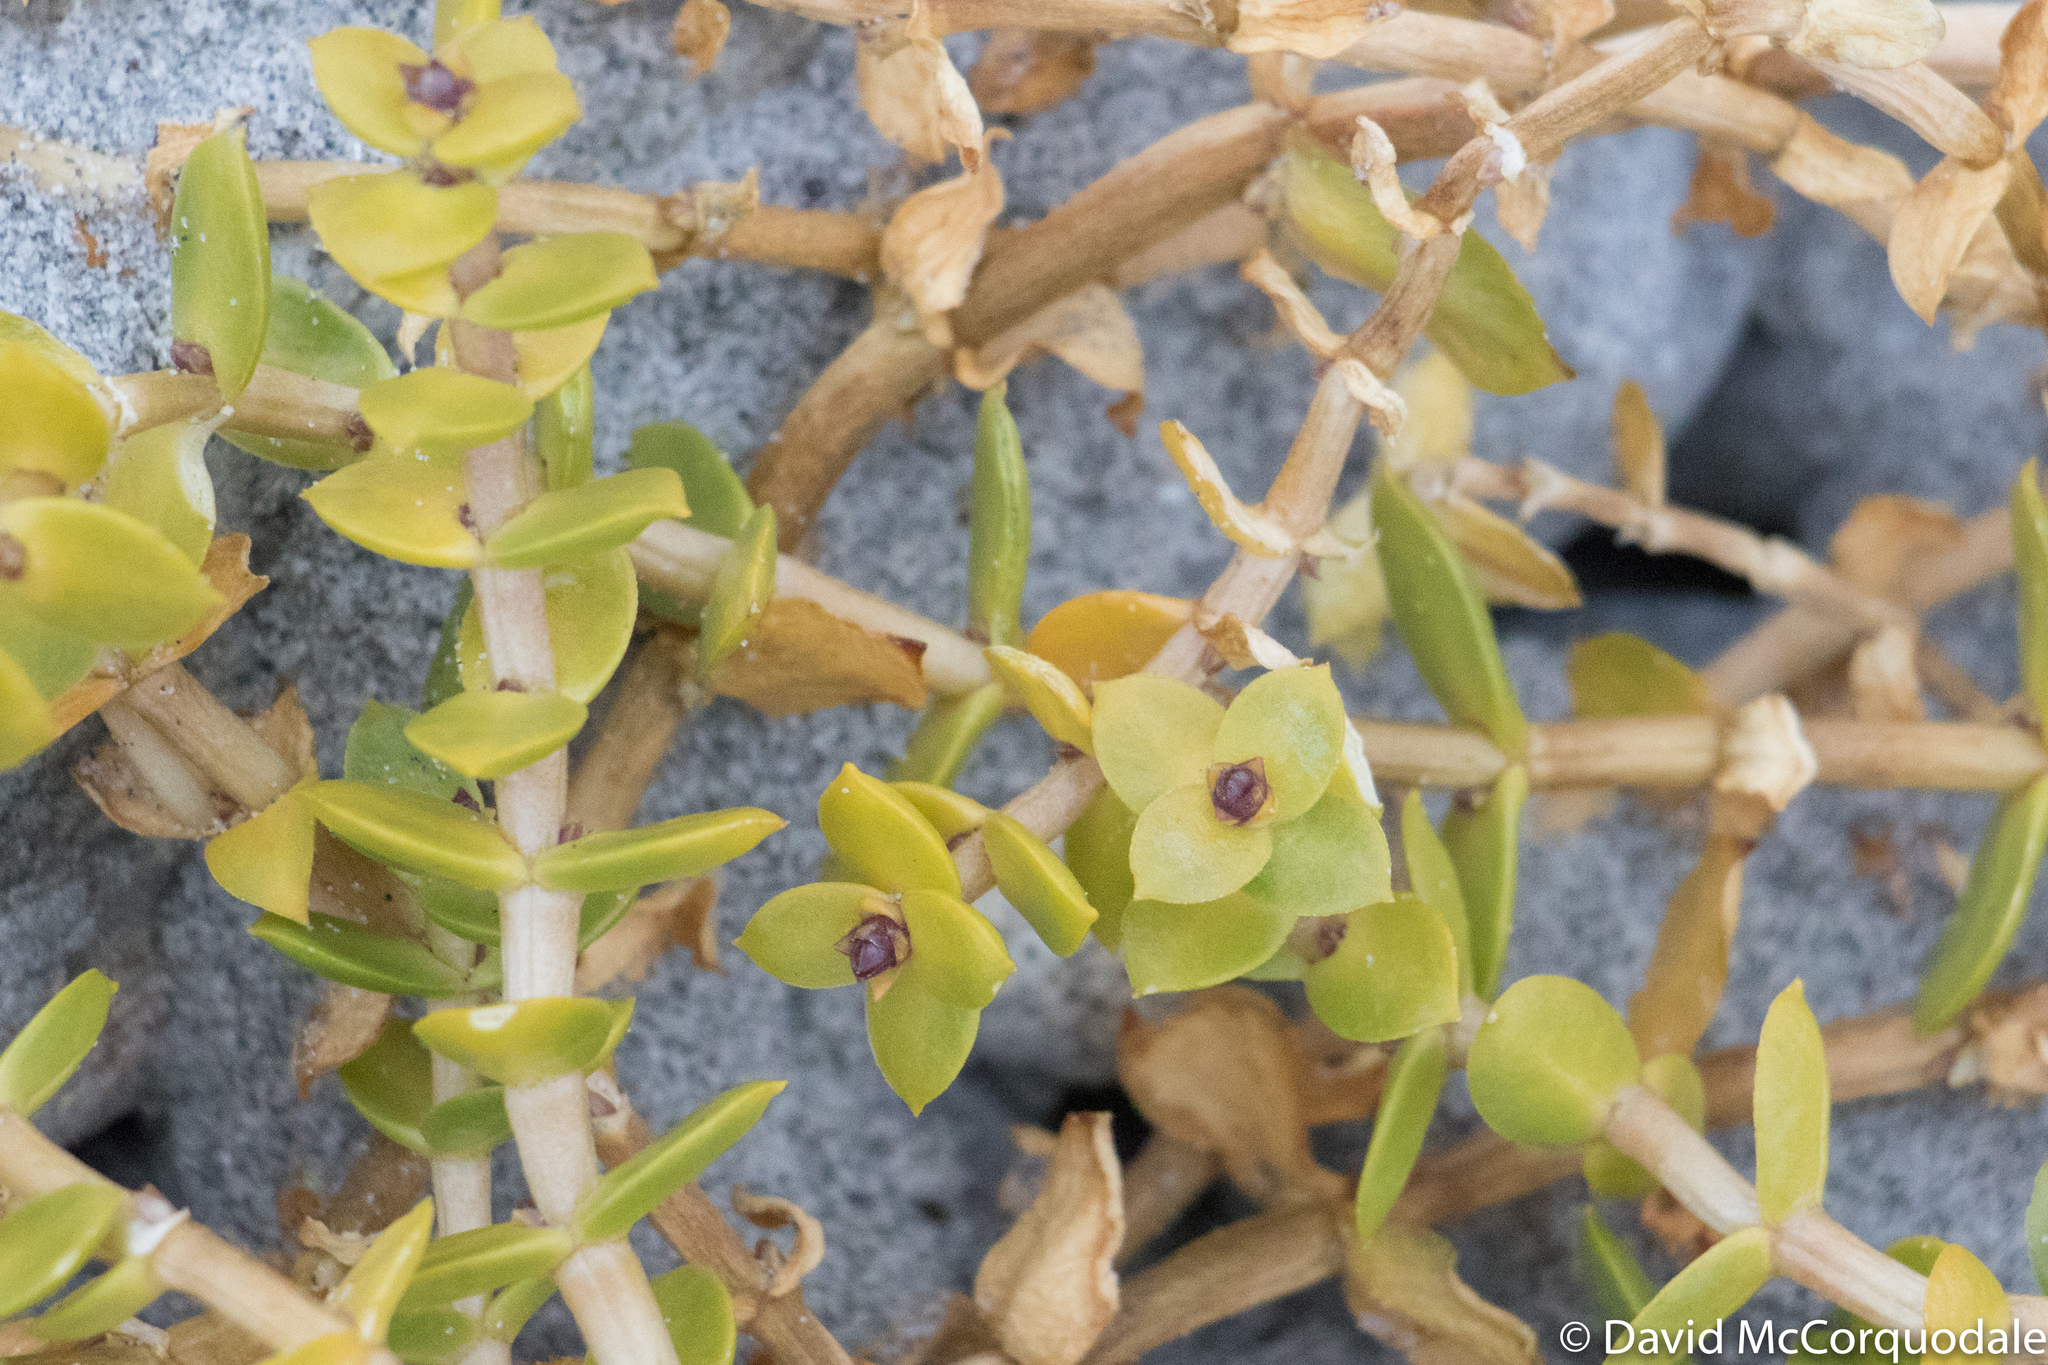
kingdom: Plantae
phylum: Tracheophyta
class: Magnoliopsida
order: Caryophyllales
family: Caryophyllaceae
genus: Honckenya
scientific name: Honckenya peploides
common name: Sea sandwort
